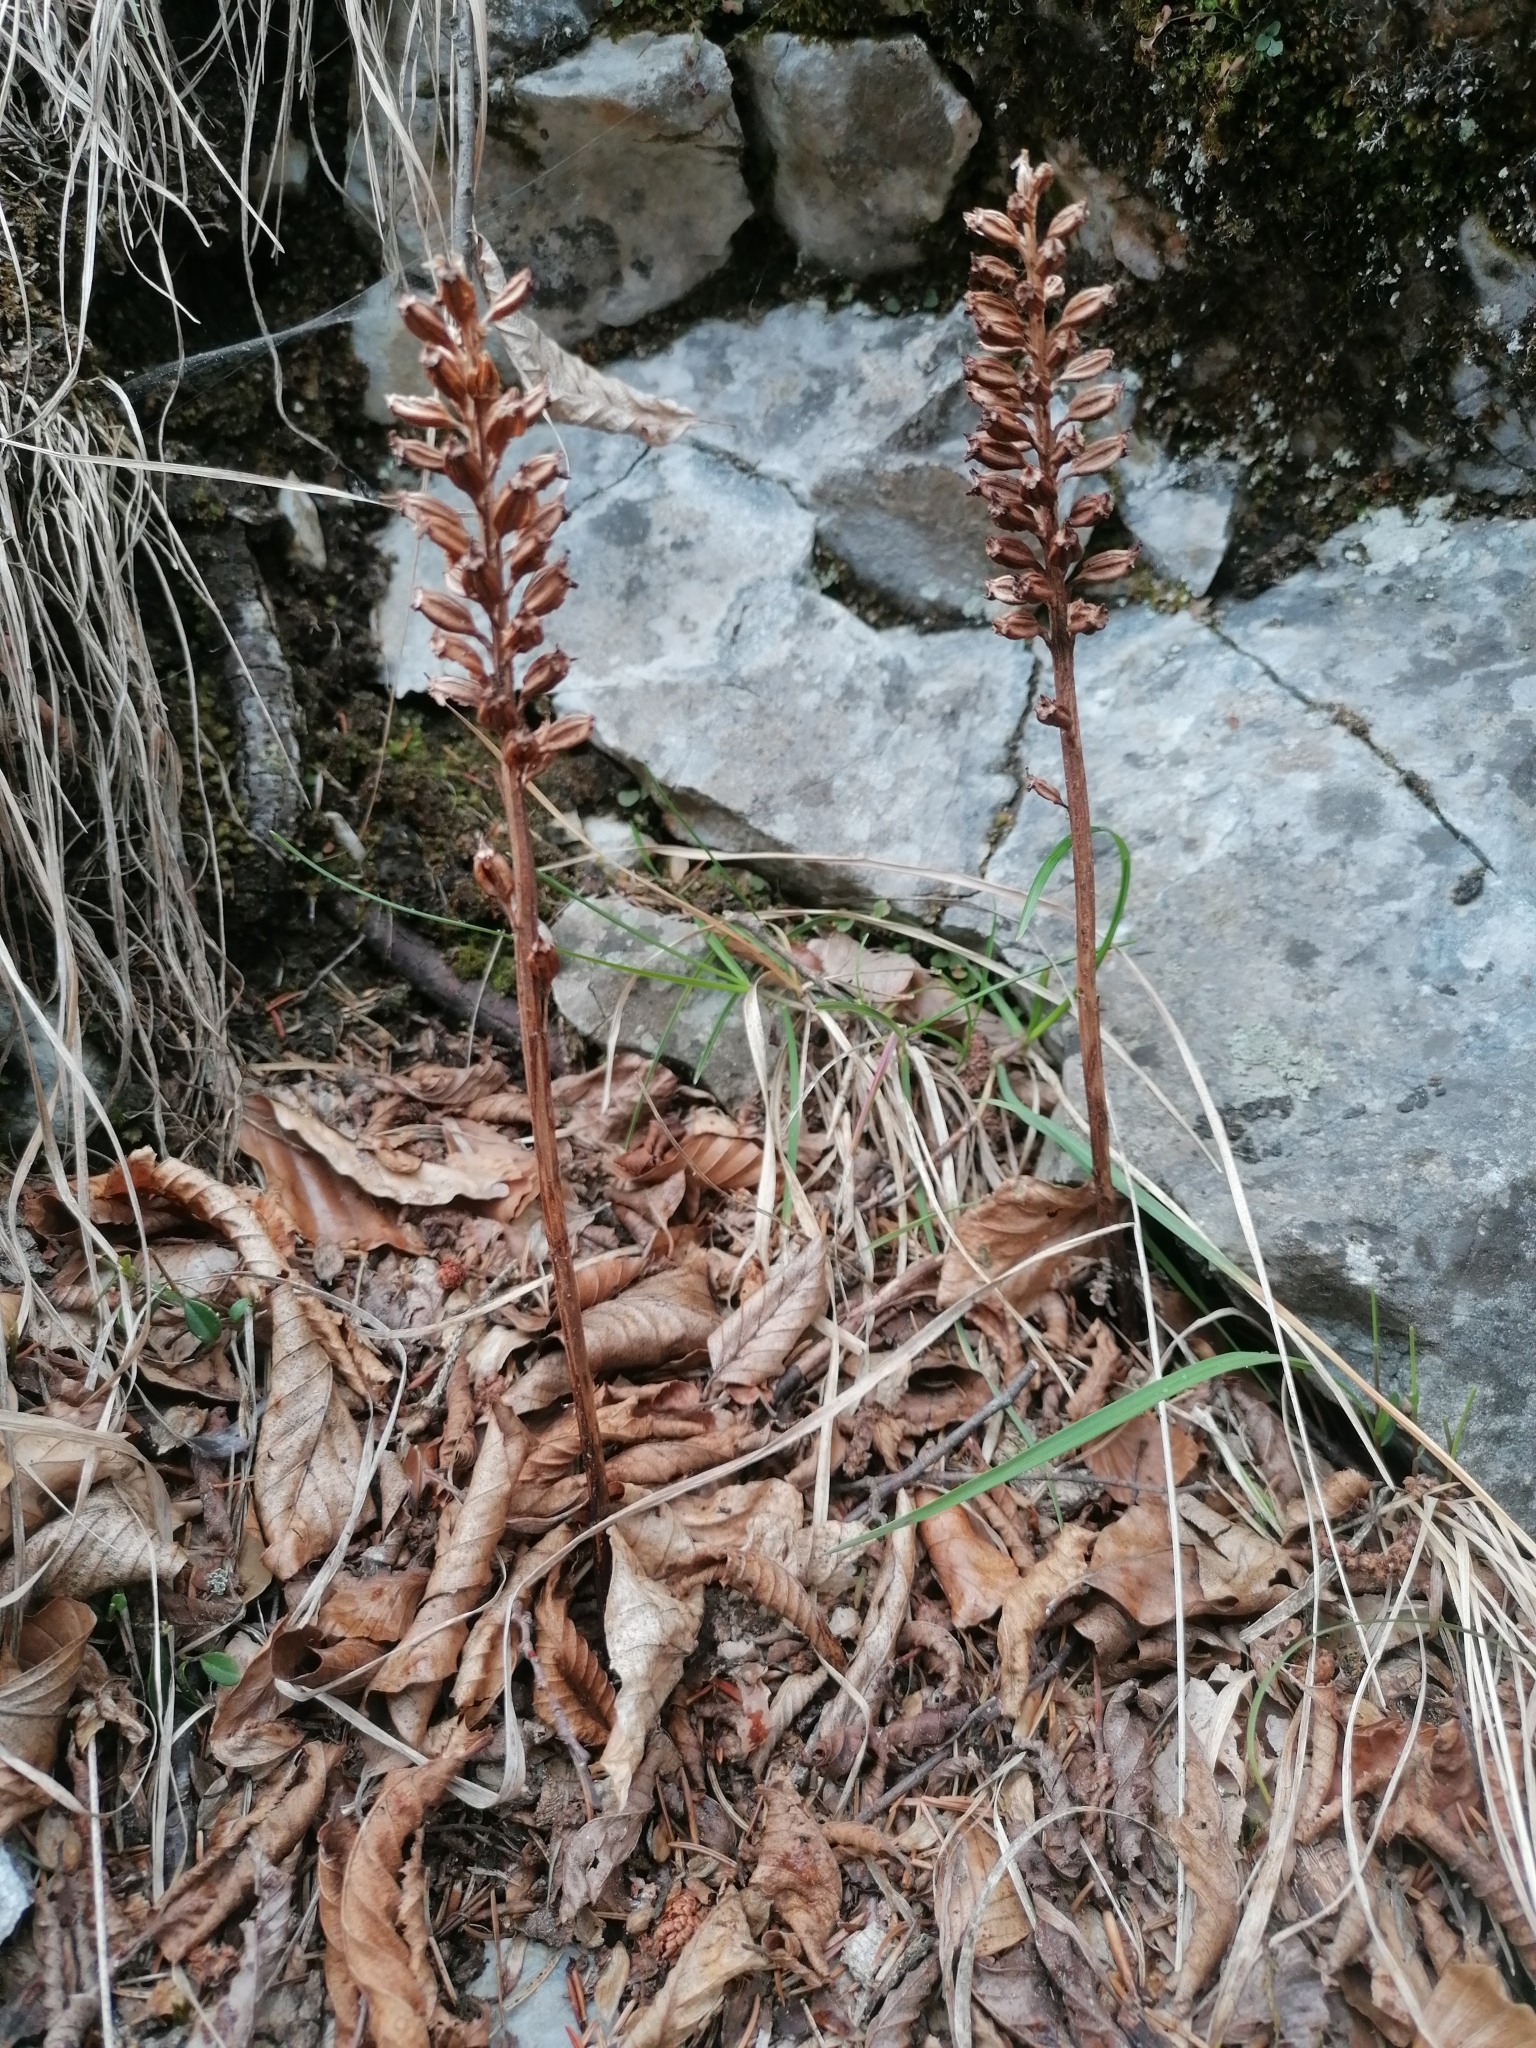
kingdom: Plantae
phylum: Tracheophyta
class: Liliopsida
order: Asparagales
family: Orchidaceae
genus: Neottia
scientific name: Neottia nidus-avis
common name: Bird's-nest orchid
